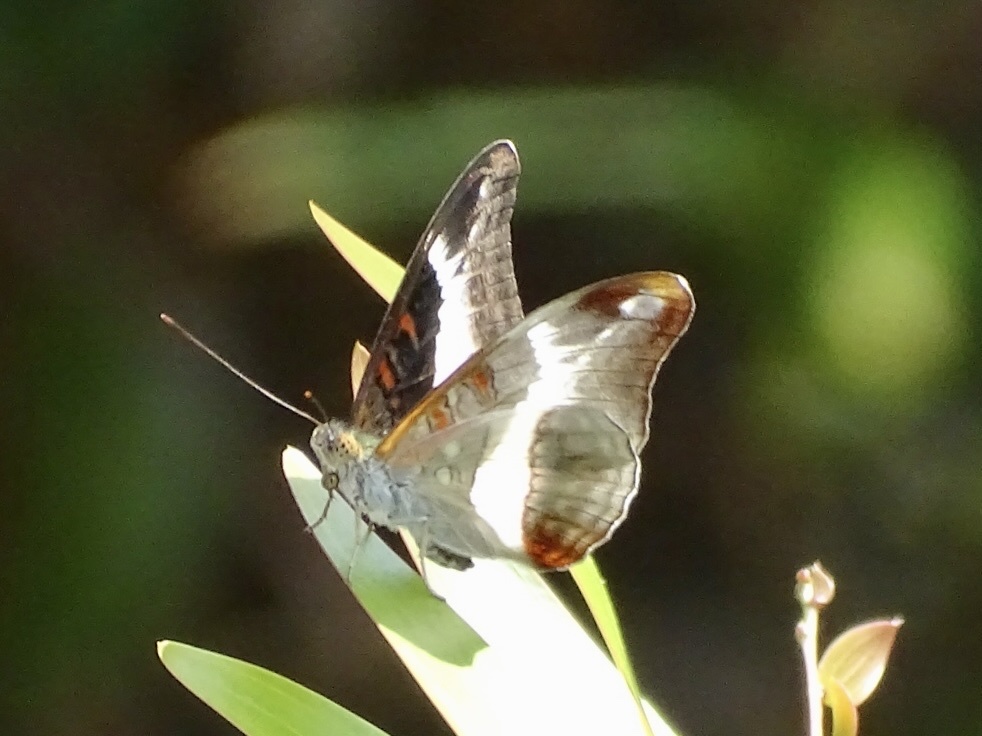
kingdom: Animalia
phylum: Arthropoda
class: Insecta
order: Lepidoptera
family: Nymphalidae
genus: Limenitis
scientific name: Limenitis Parasarpa dudu
